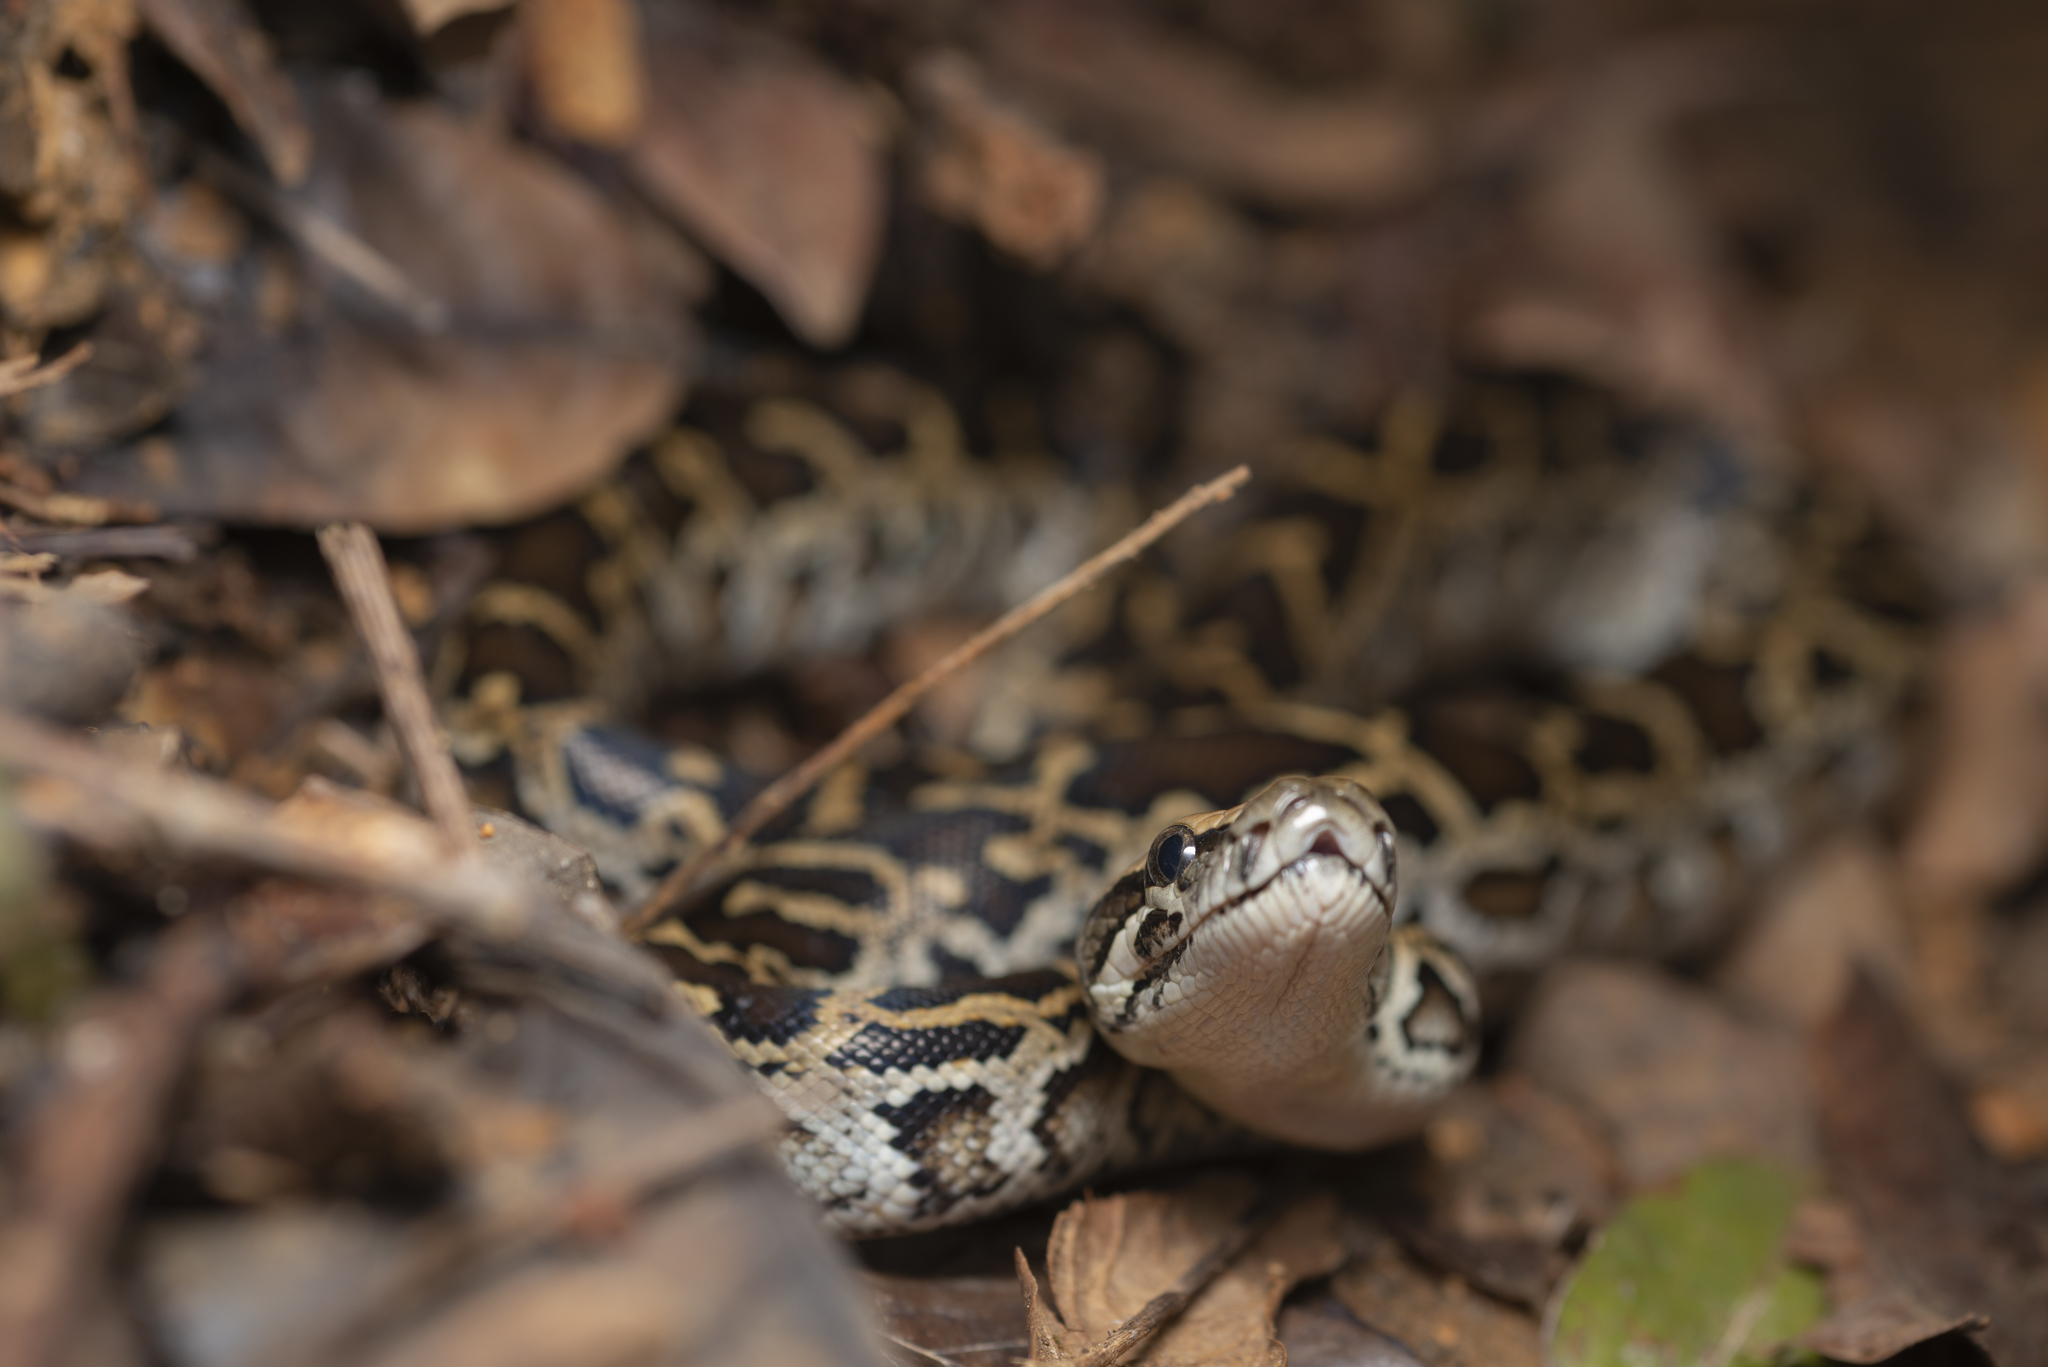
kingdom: Animalia
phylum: Chordata
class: Squamata
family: Pythonidae
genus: Python
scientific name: Python bivittatus
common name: Burmese python
